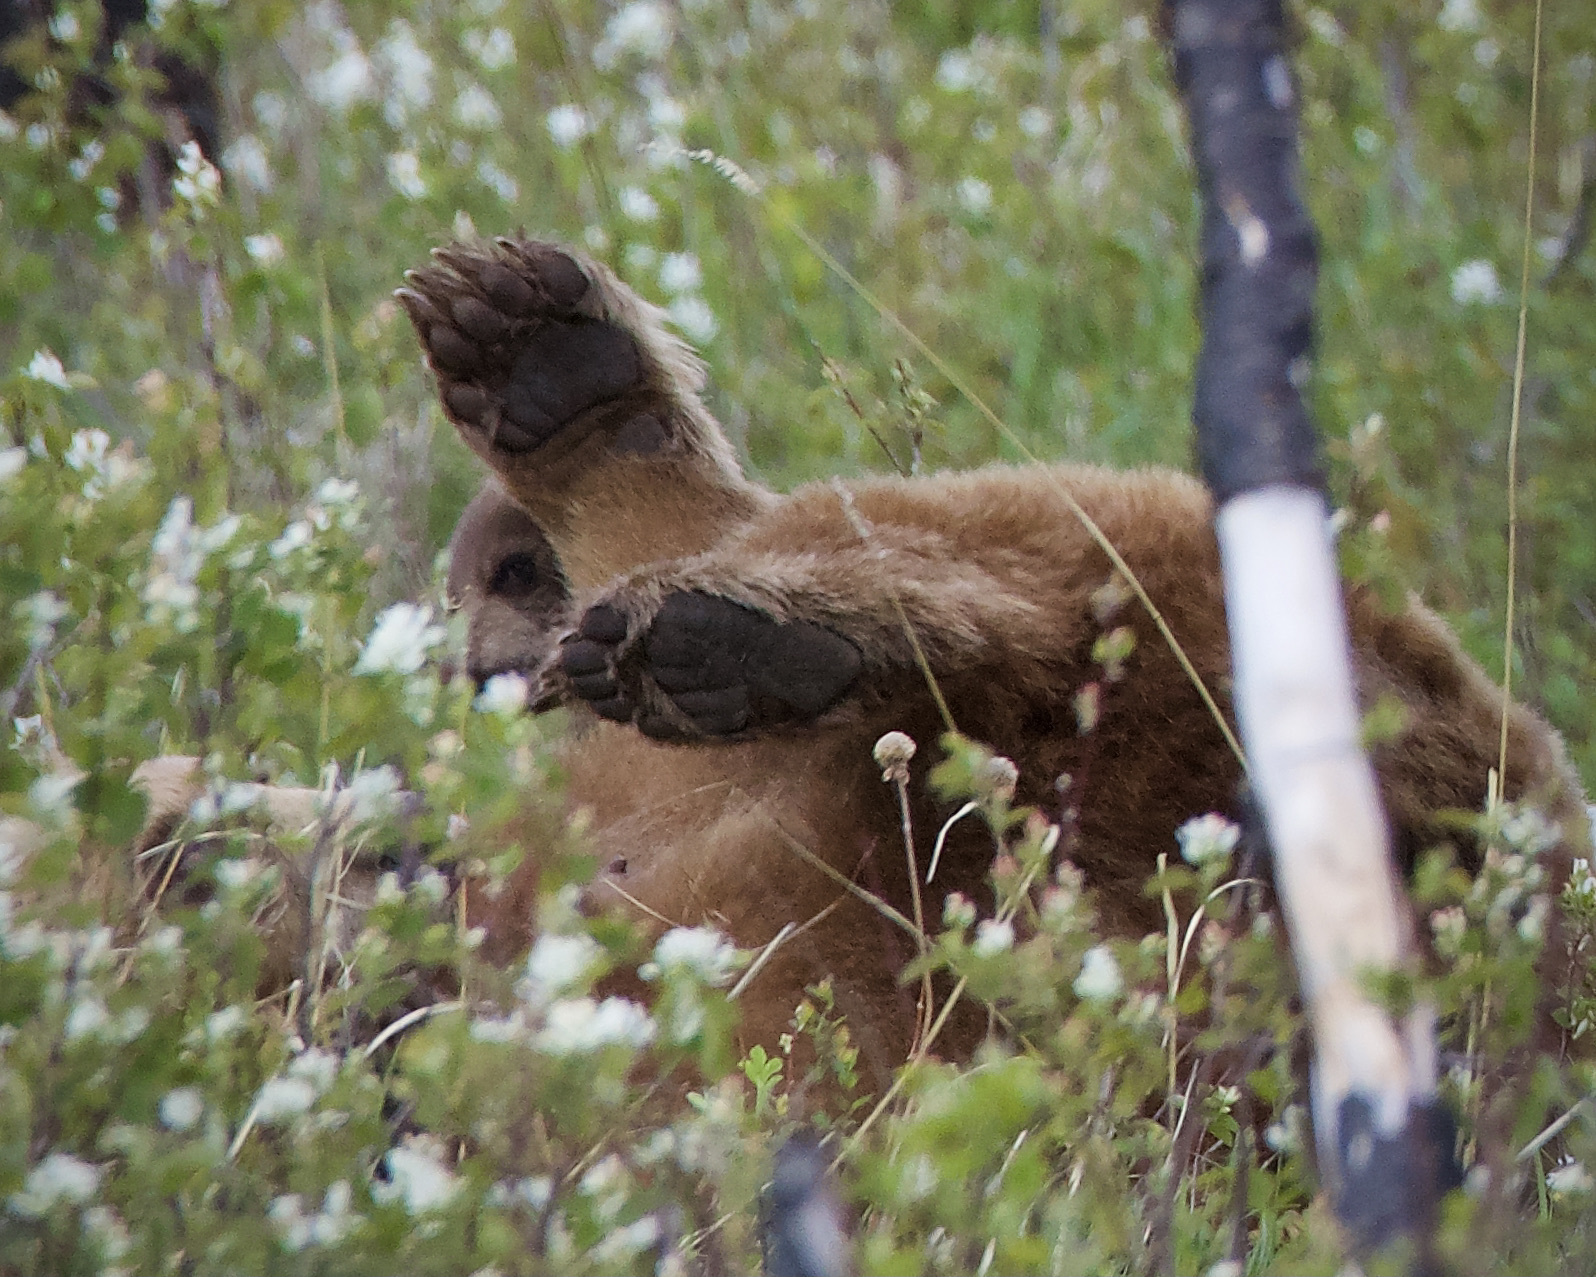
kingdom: Animalia
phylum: Chordata
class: Mammalia
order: Carnivora
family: Ursidae
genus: Ursus
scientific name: Ursus americanus
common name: American black bear
